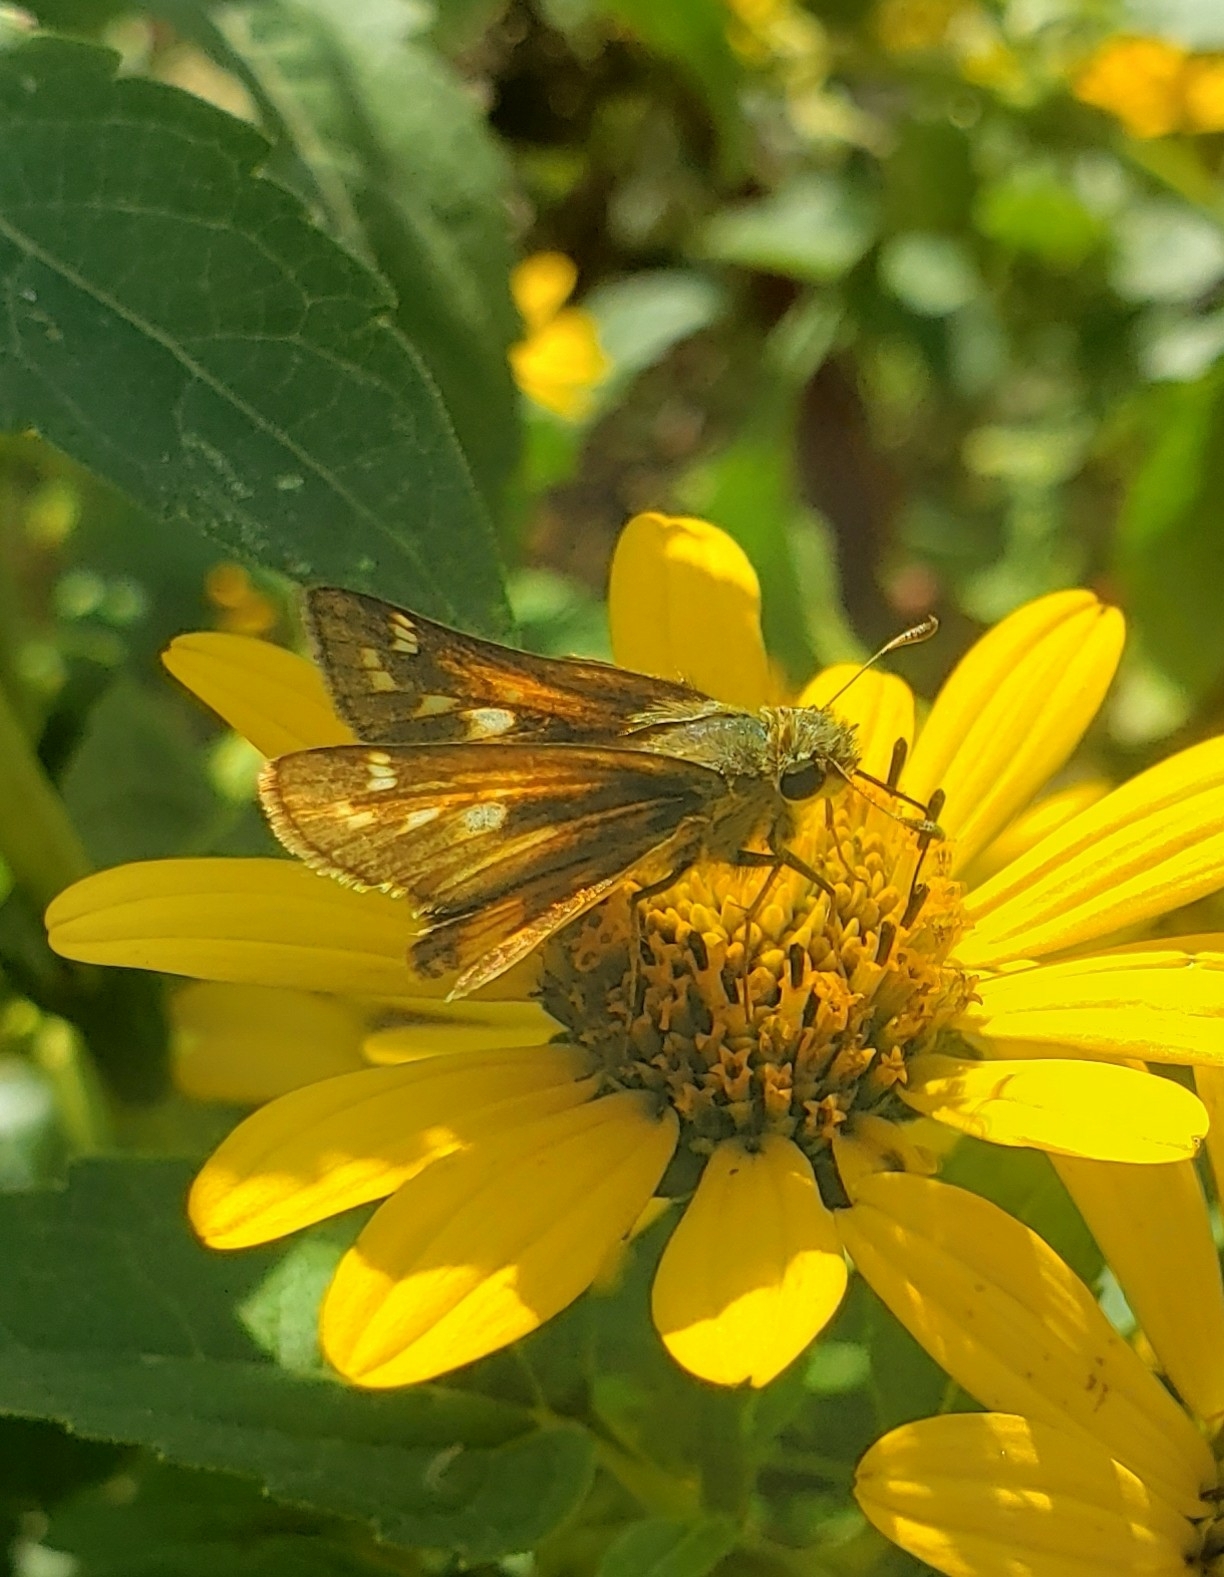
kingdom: Animalia
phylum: Arthropoda
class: Insecta
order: Lepidoptera
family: Hesperiidae
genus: Atalopedes
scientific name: Atalopedes
